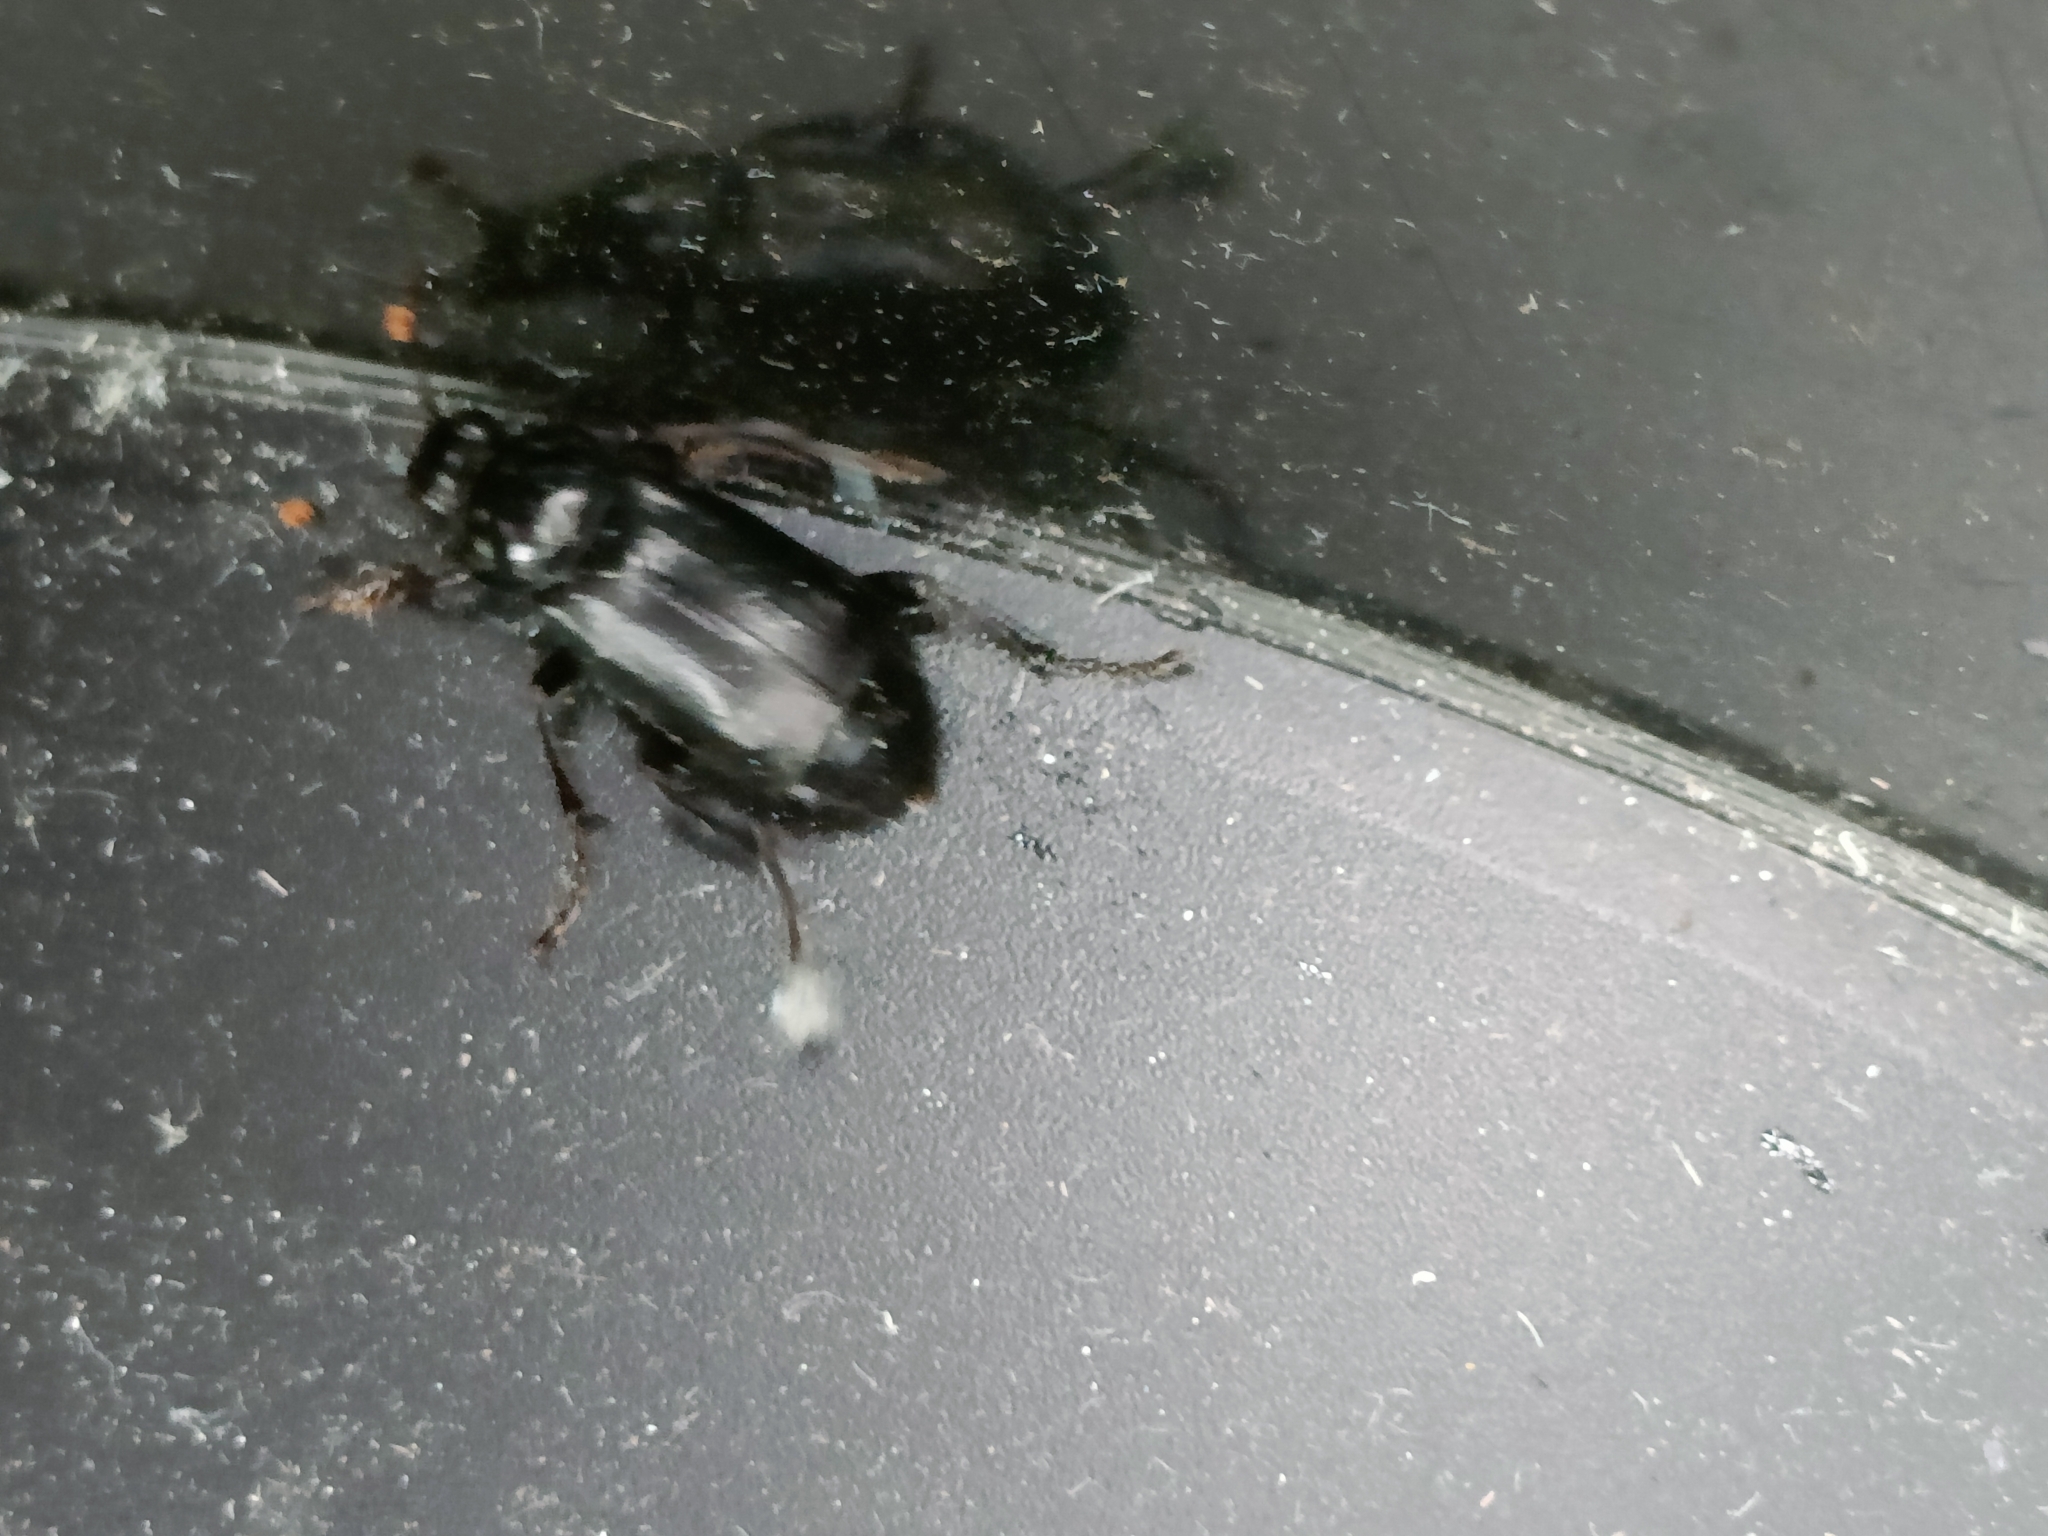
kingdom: Animalia
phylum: Arthropoda
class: Insecta
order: Coleoptera
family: Staphylinidae
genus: Nicrophorus
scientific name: Nicrophorus humator
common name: Black sexton beetle
